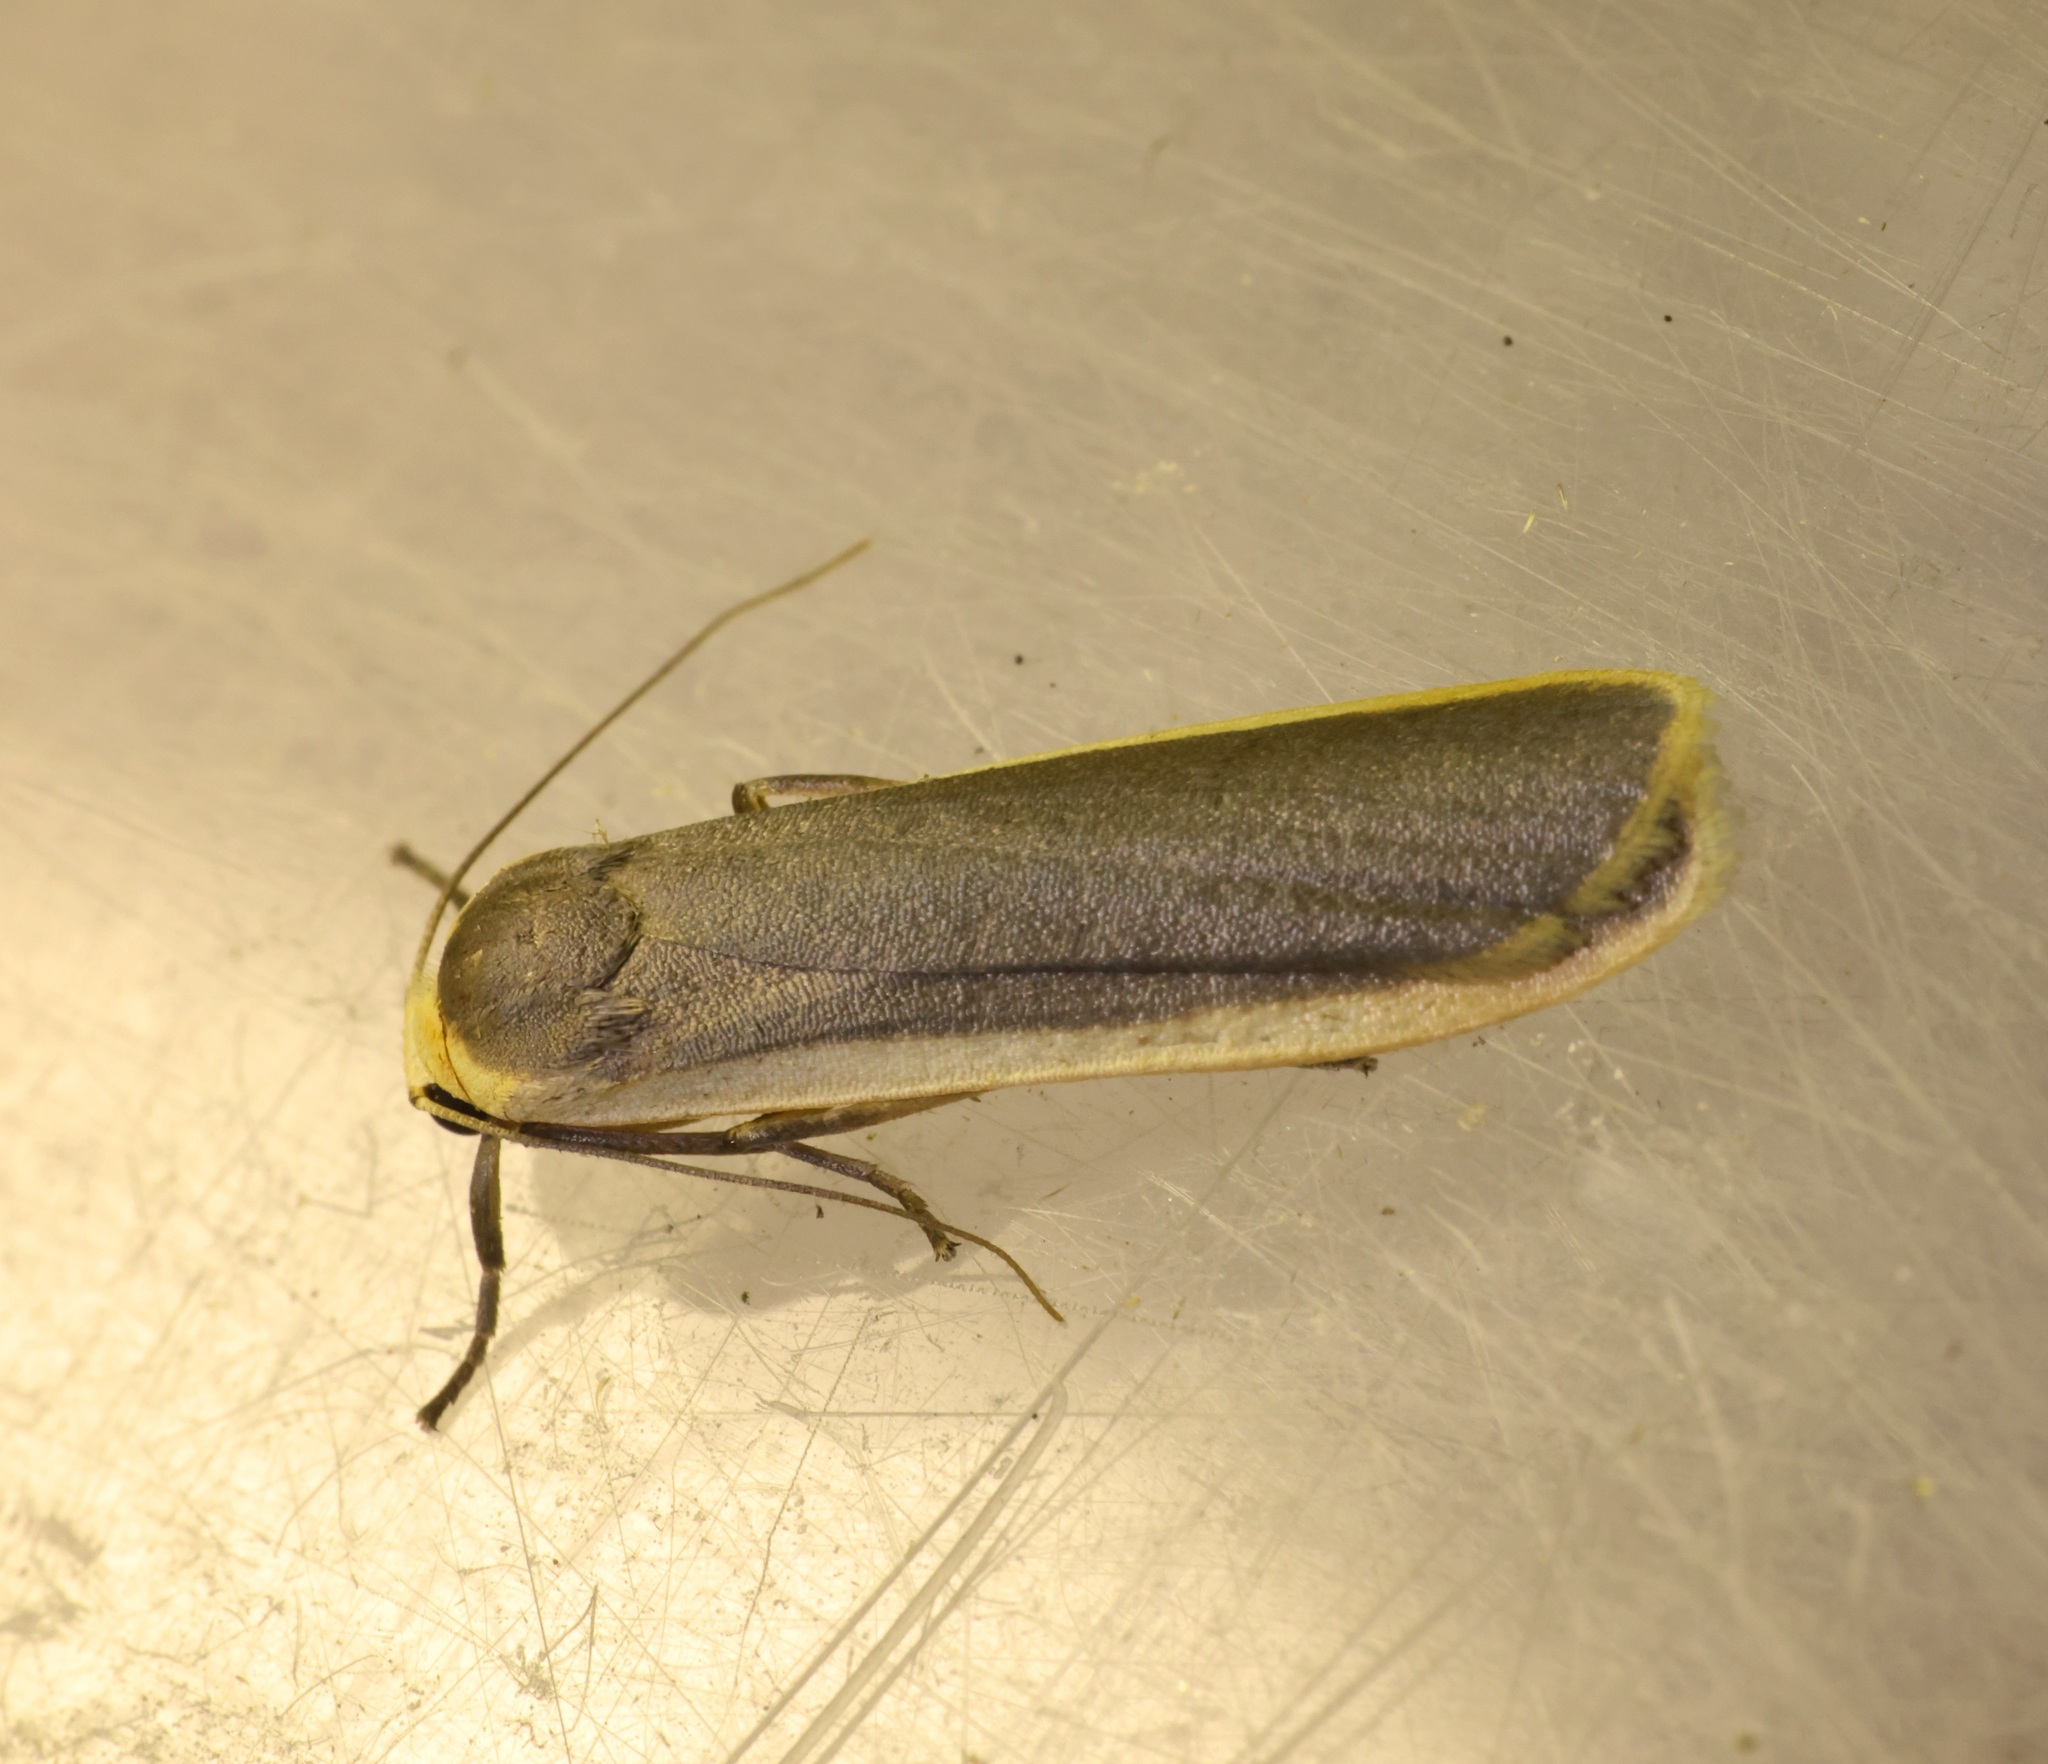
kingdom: Animalia
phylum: Arthropoda
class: Insecta
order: Lepidoptera
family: Erebidae
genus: Brunia
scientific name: Brunia antica
